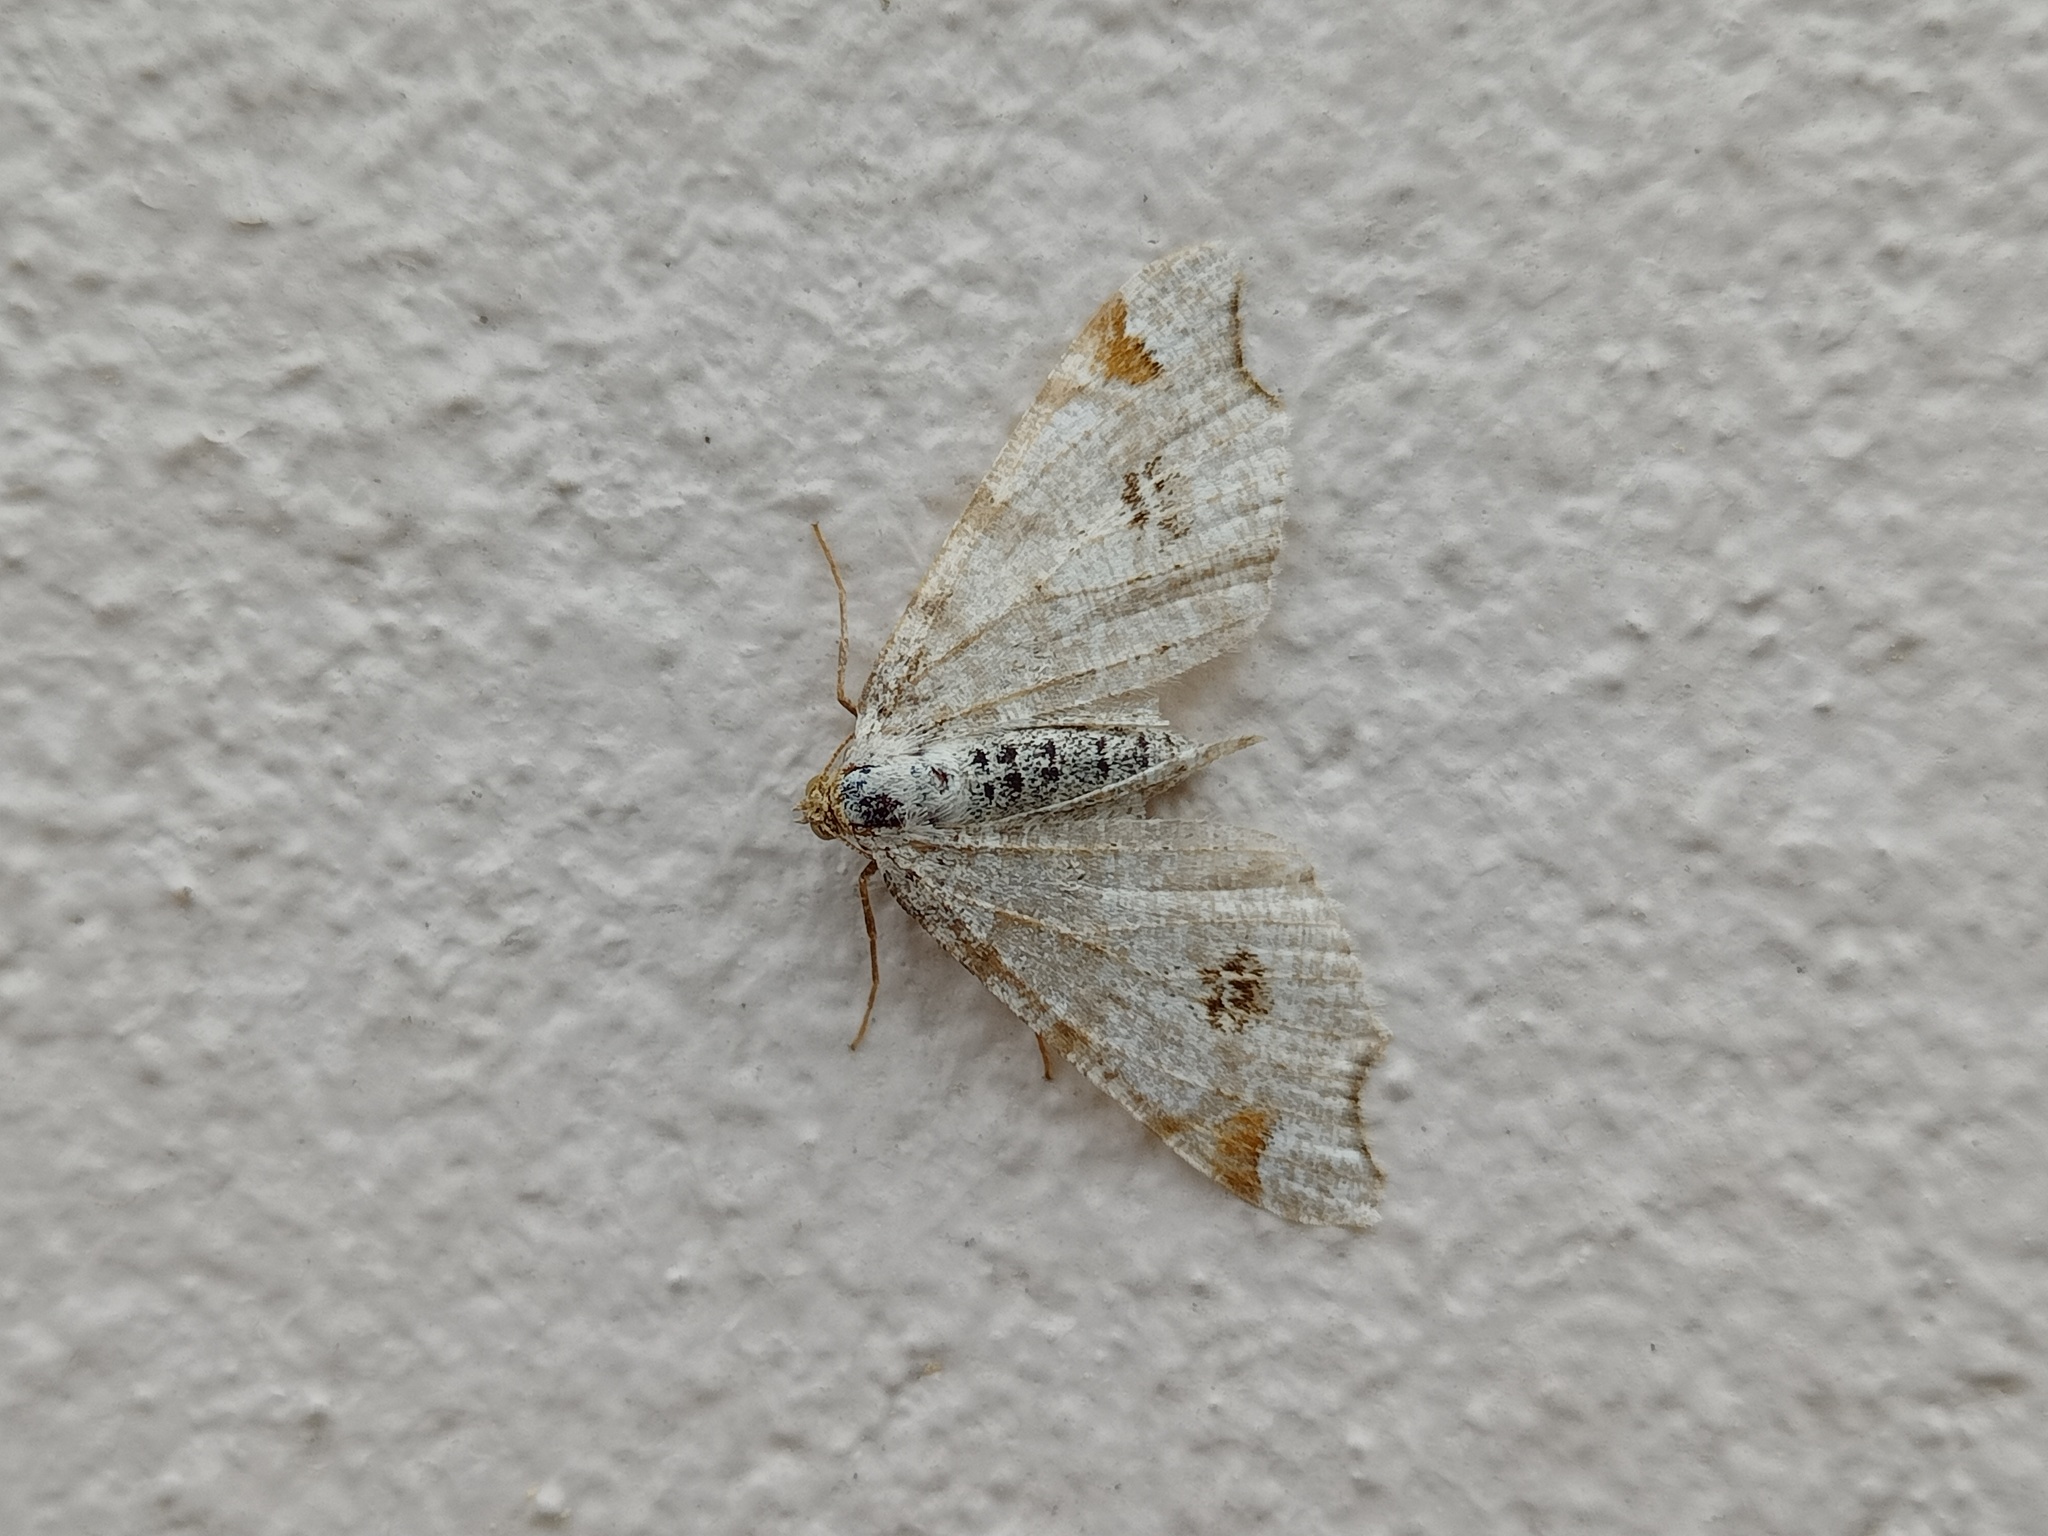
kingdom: Animalia
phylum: Arthropoda
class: Insecta
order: Lepidoptera
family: Geometridae
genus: Macaria
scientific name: Macaria notata
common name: Peacock moth
